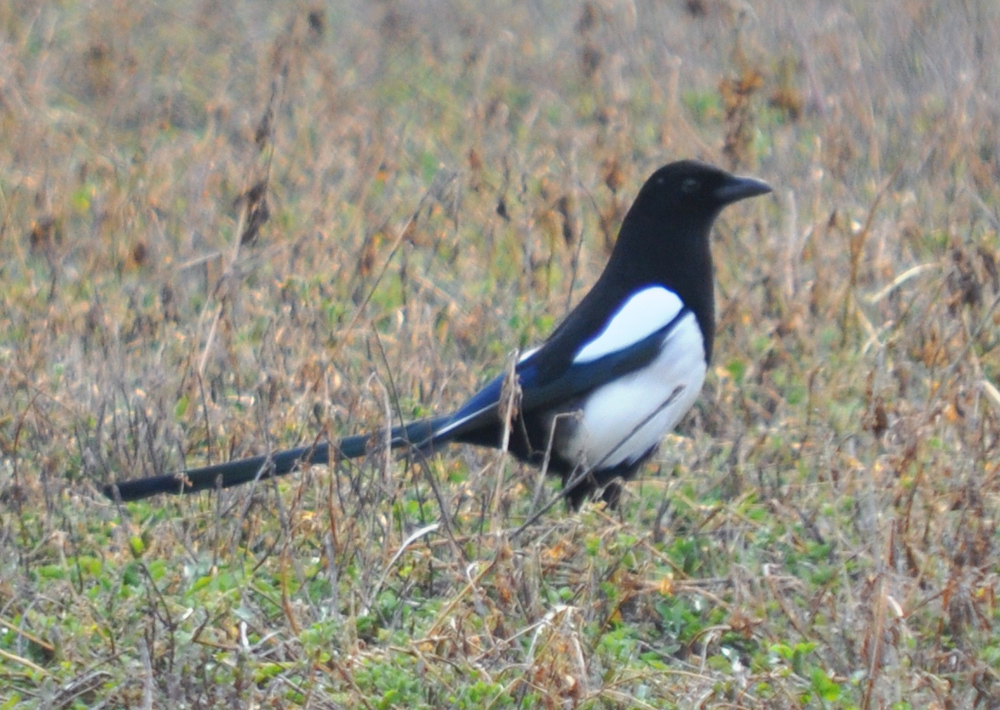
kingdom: Animalia
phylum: Chordata
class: Aves
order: Passeriformes
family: Corvidae
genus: Pica
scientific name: Pica pica
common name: Eurasian magpie
